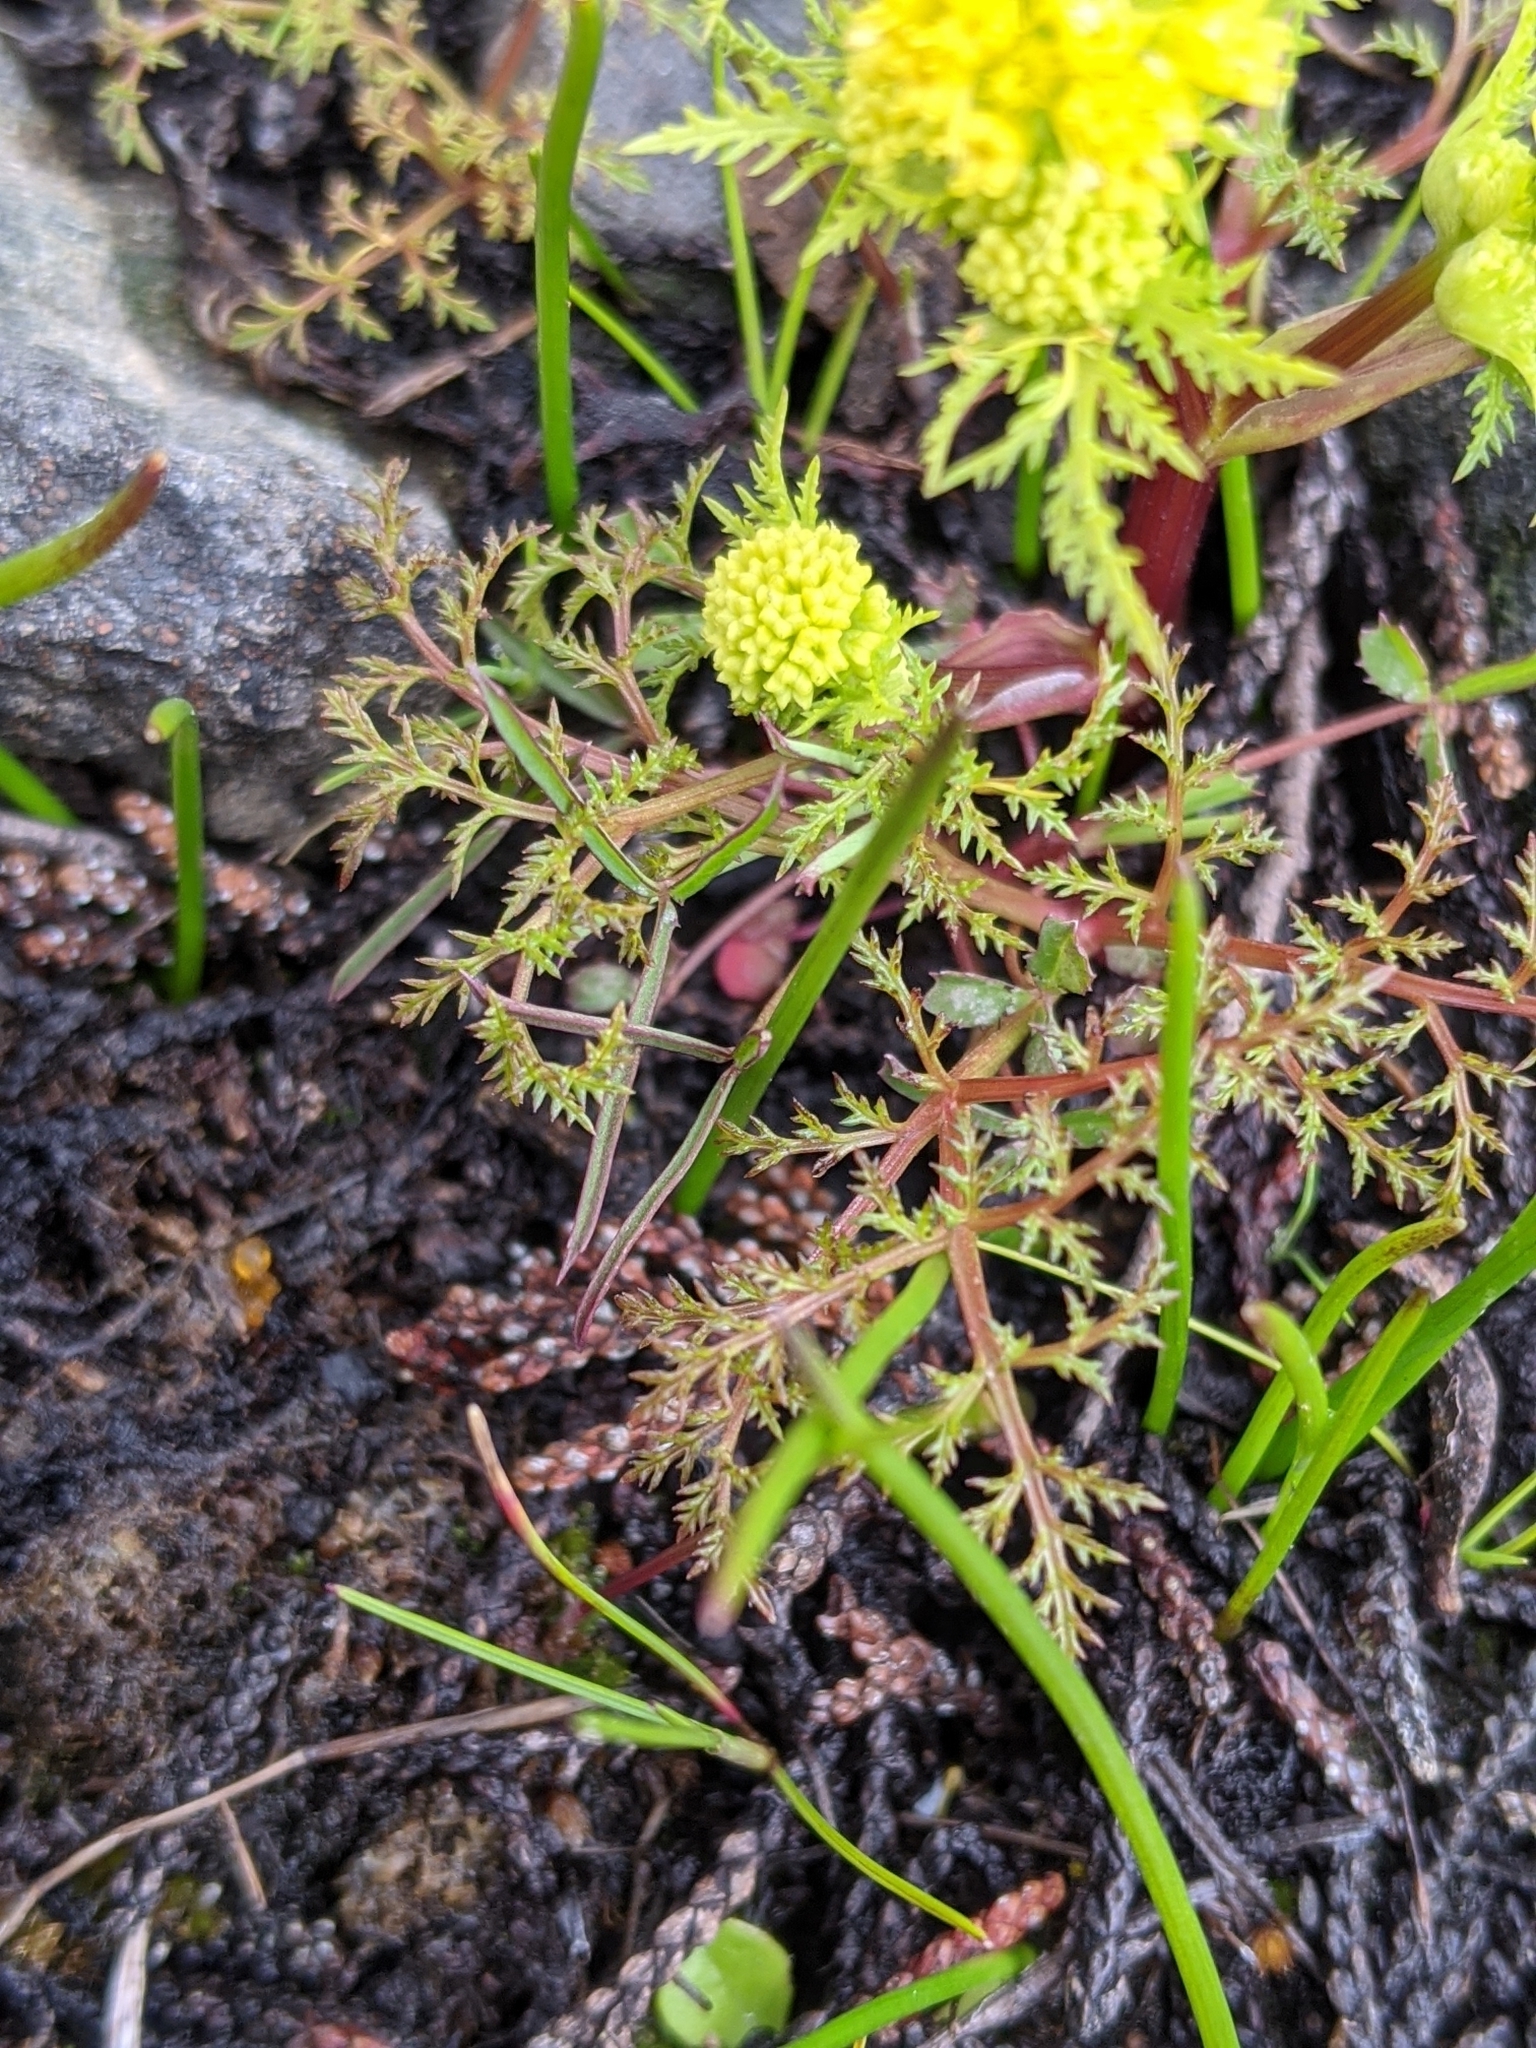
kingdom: Plantae
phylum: Tracheophyta
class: Magnoliopsida
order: Apiales
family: Apiaceae
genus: Sanicula
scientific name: Sanicula tuberosa
